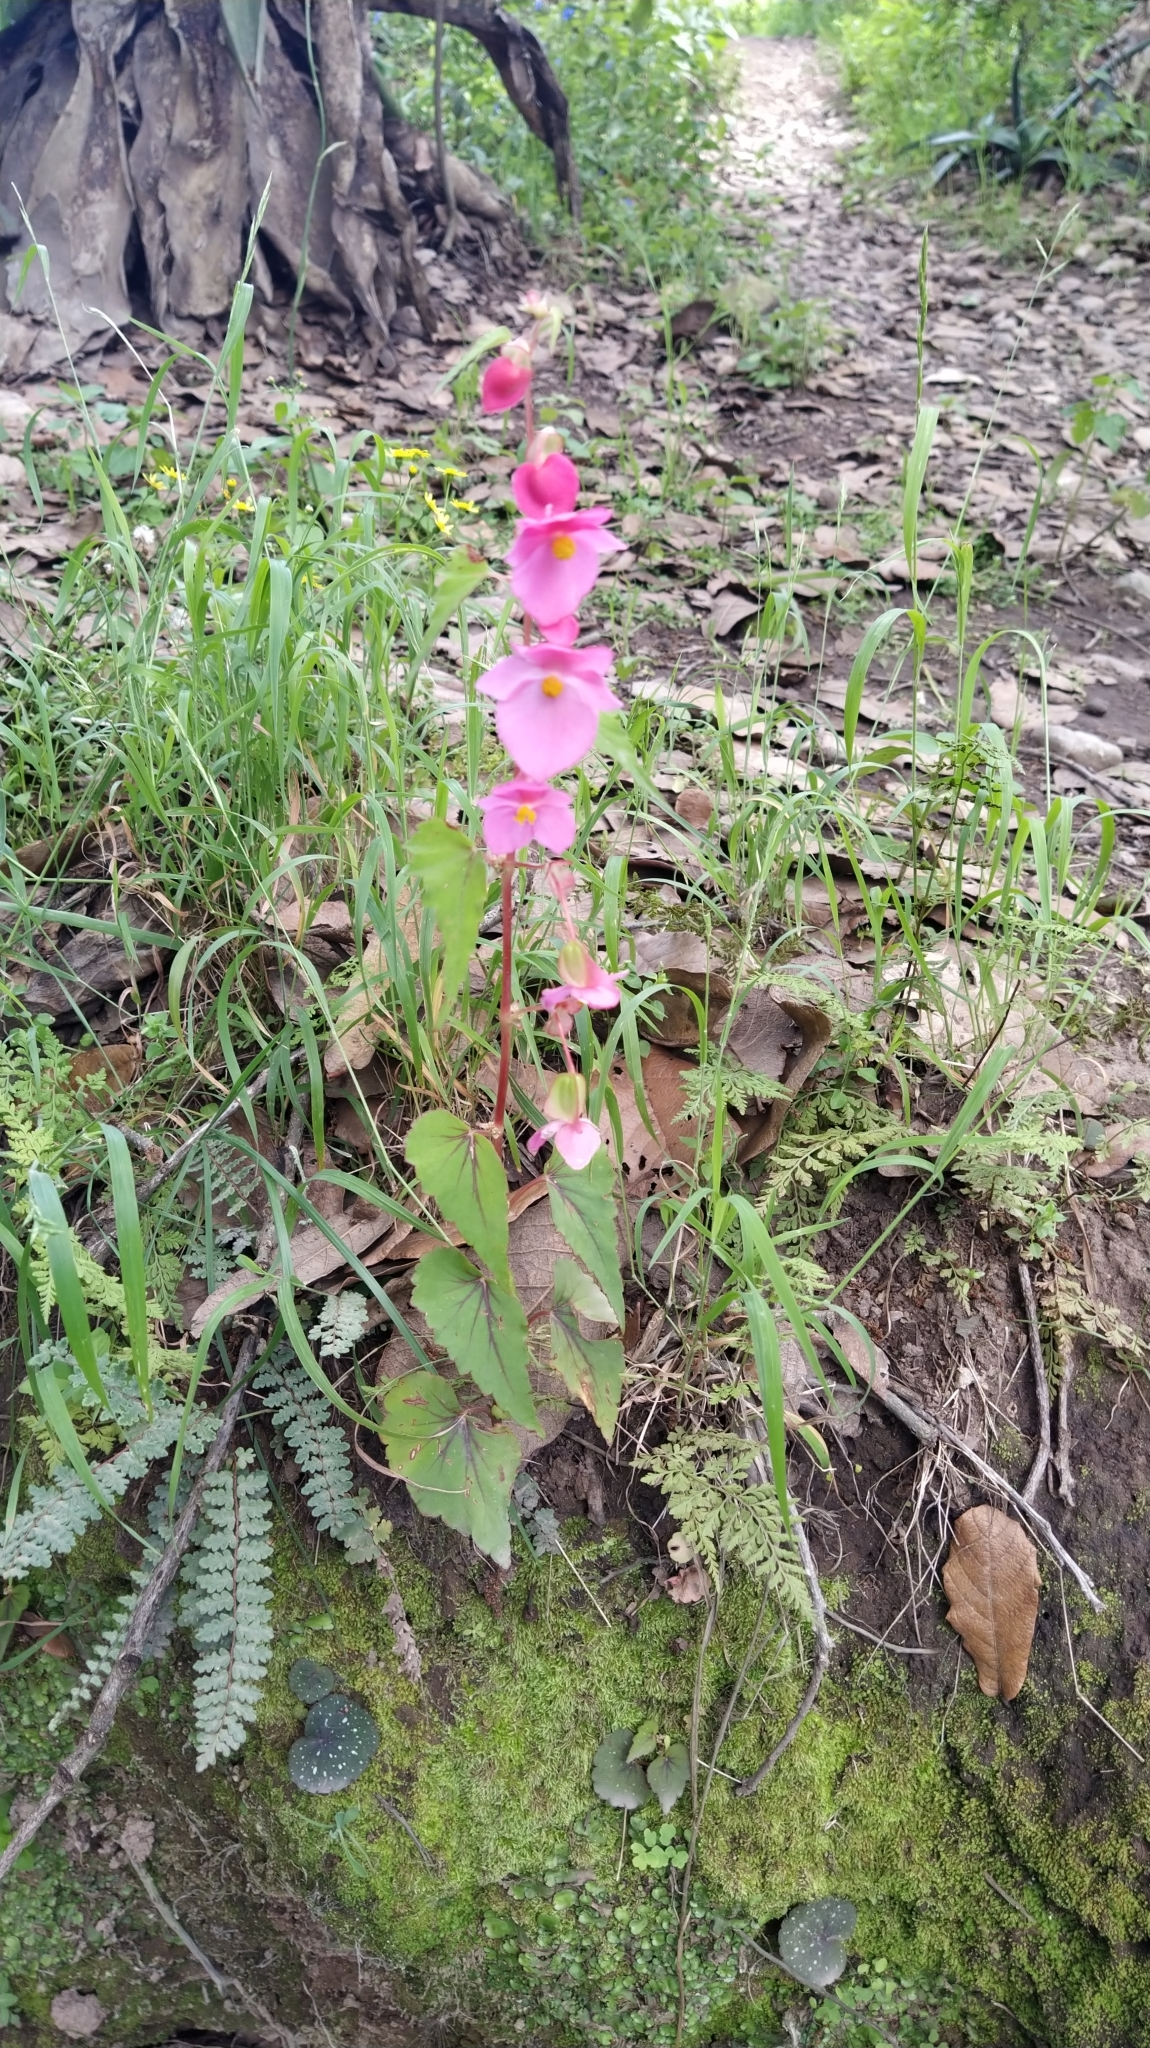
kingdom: Plantae
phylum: Tracheophyta
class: Magnoliopsida
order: Cucurbitales
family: Begoniaceae
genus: Begonia
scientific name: Begonia gracilis
